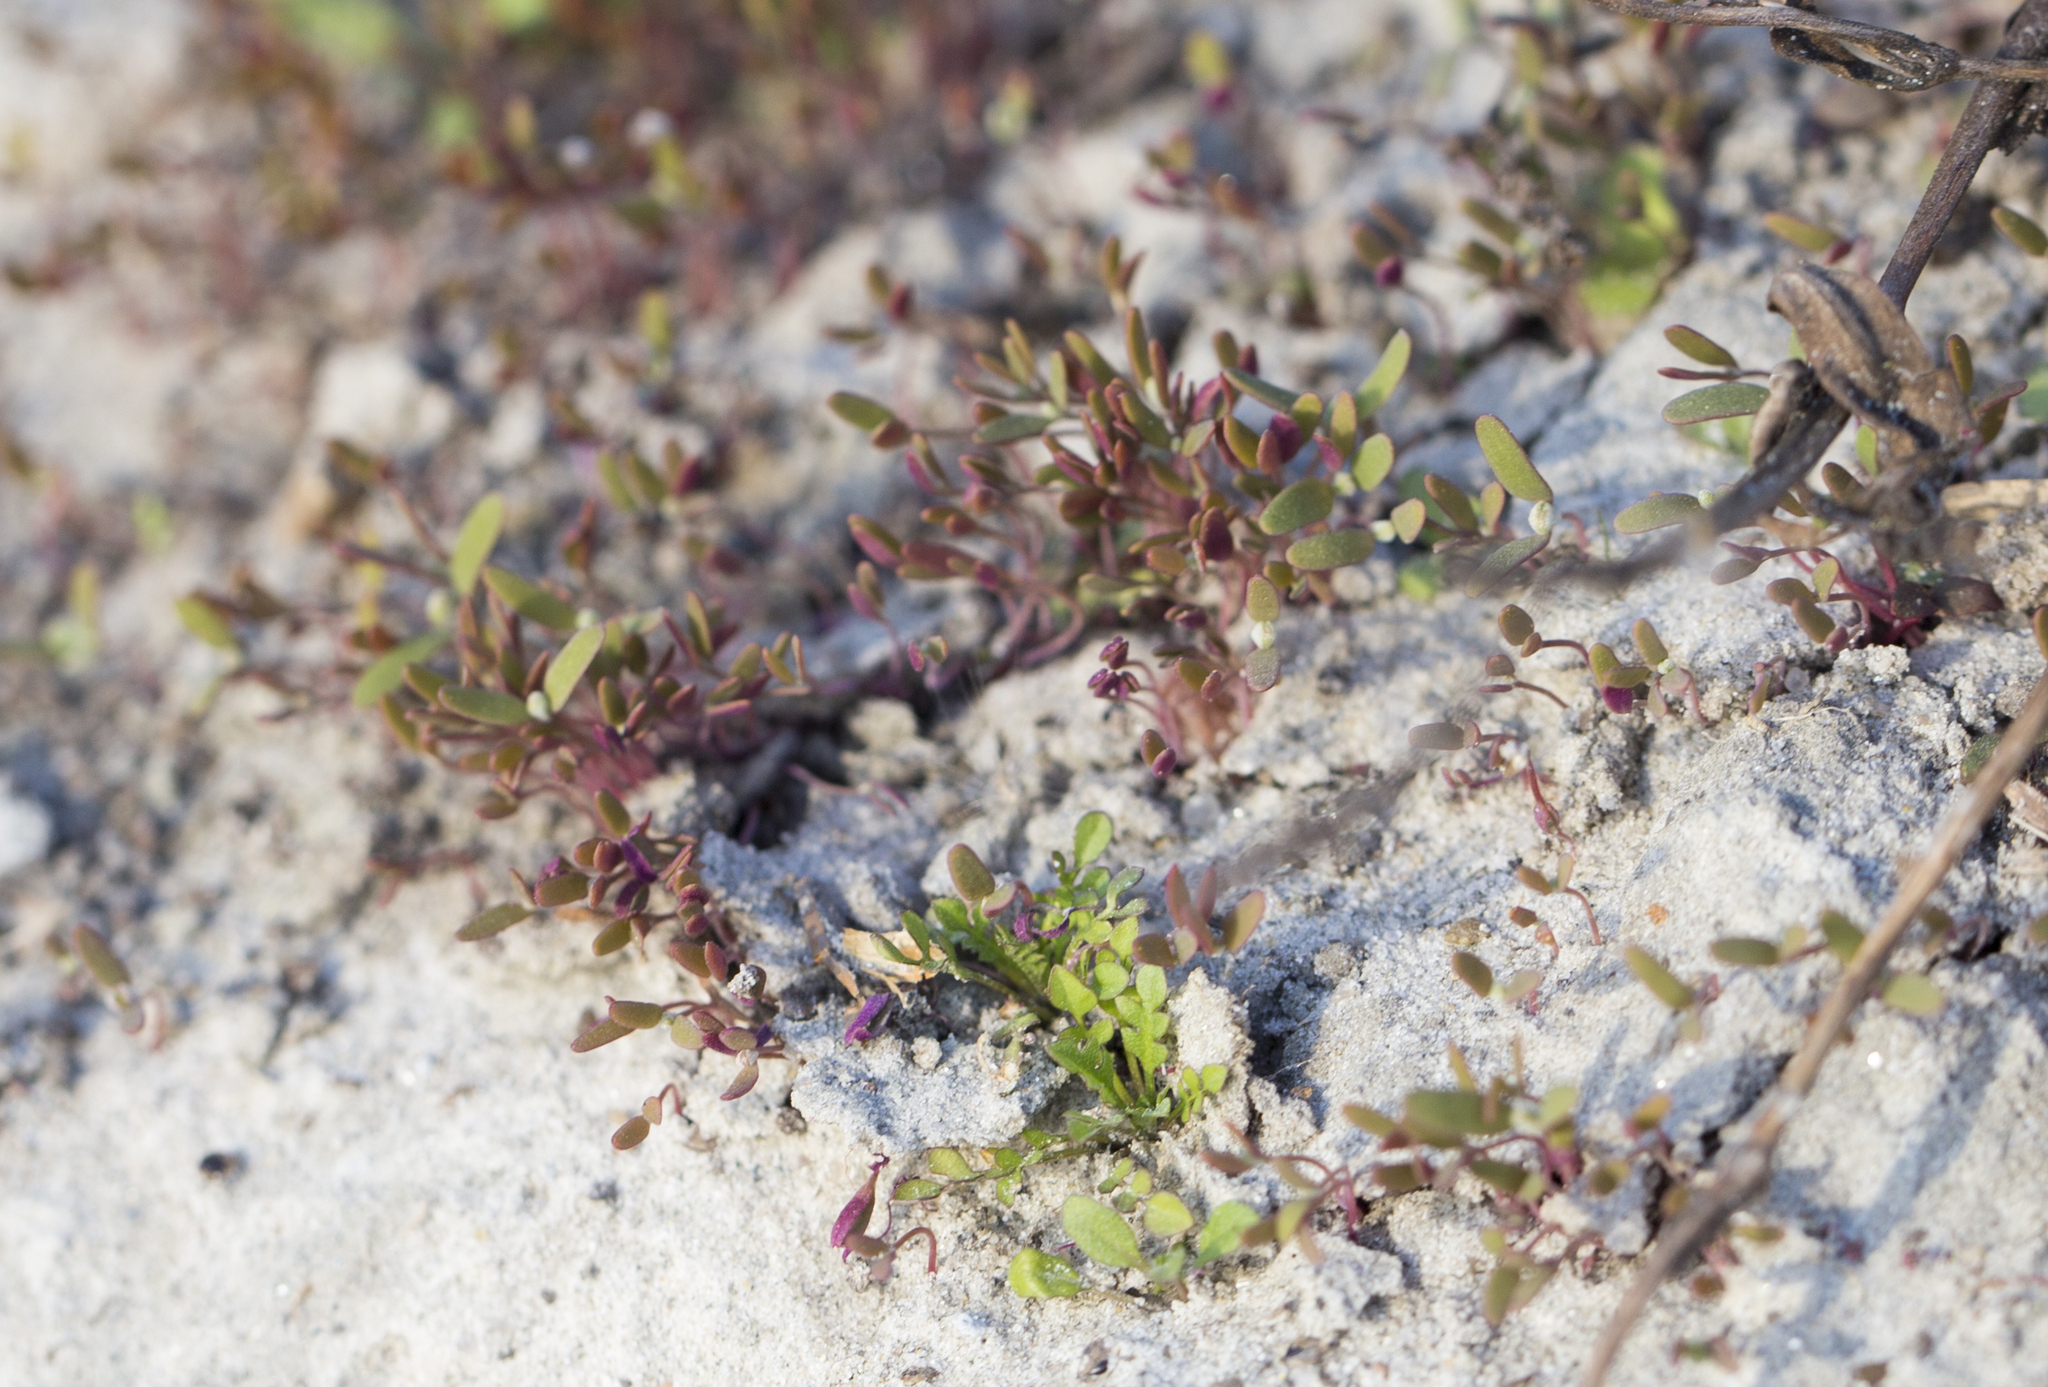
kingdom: Plantae
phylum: Tracheophyta
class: Magnoliopsida
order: Brassicales
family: Brassicaceae
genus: Capsella
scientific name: Capsella bursa-pastoris
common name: Shepherd's purse
